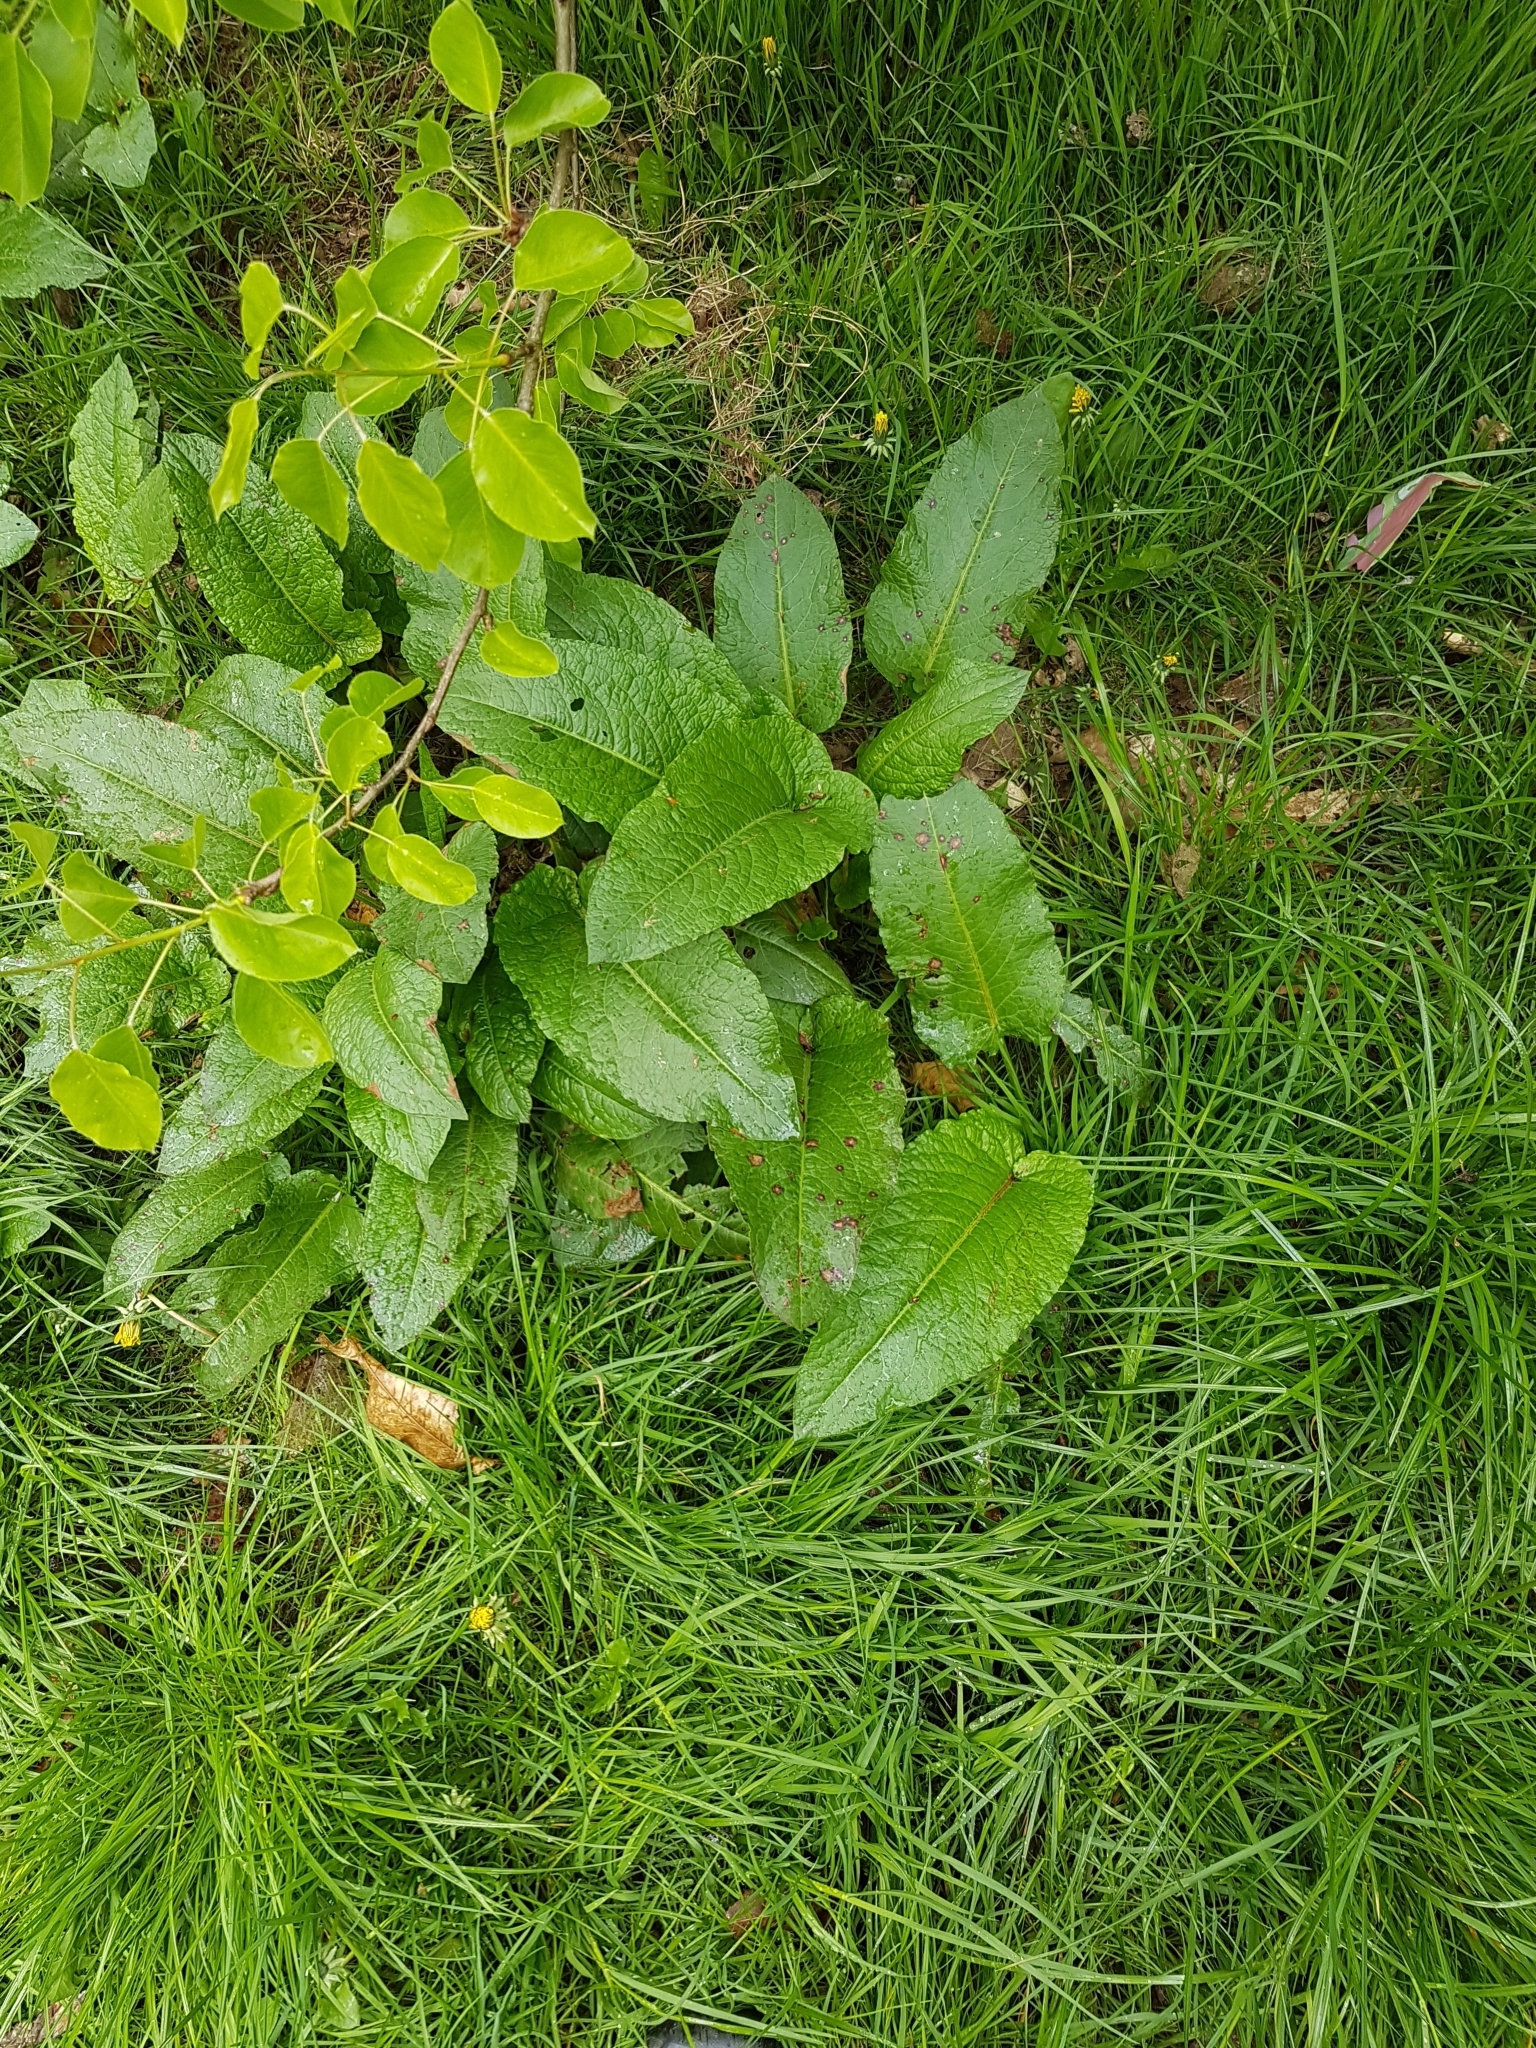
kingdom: Plantae
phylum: Tracheophyta
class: Magnoliopsida
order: Caryophyllales
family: Polygonaceae
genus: Rumex
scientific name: Rumex obtusifolius
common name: Bitter dock
